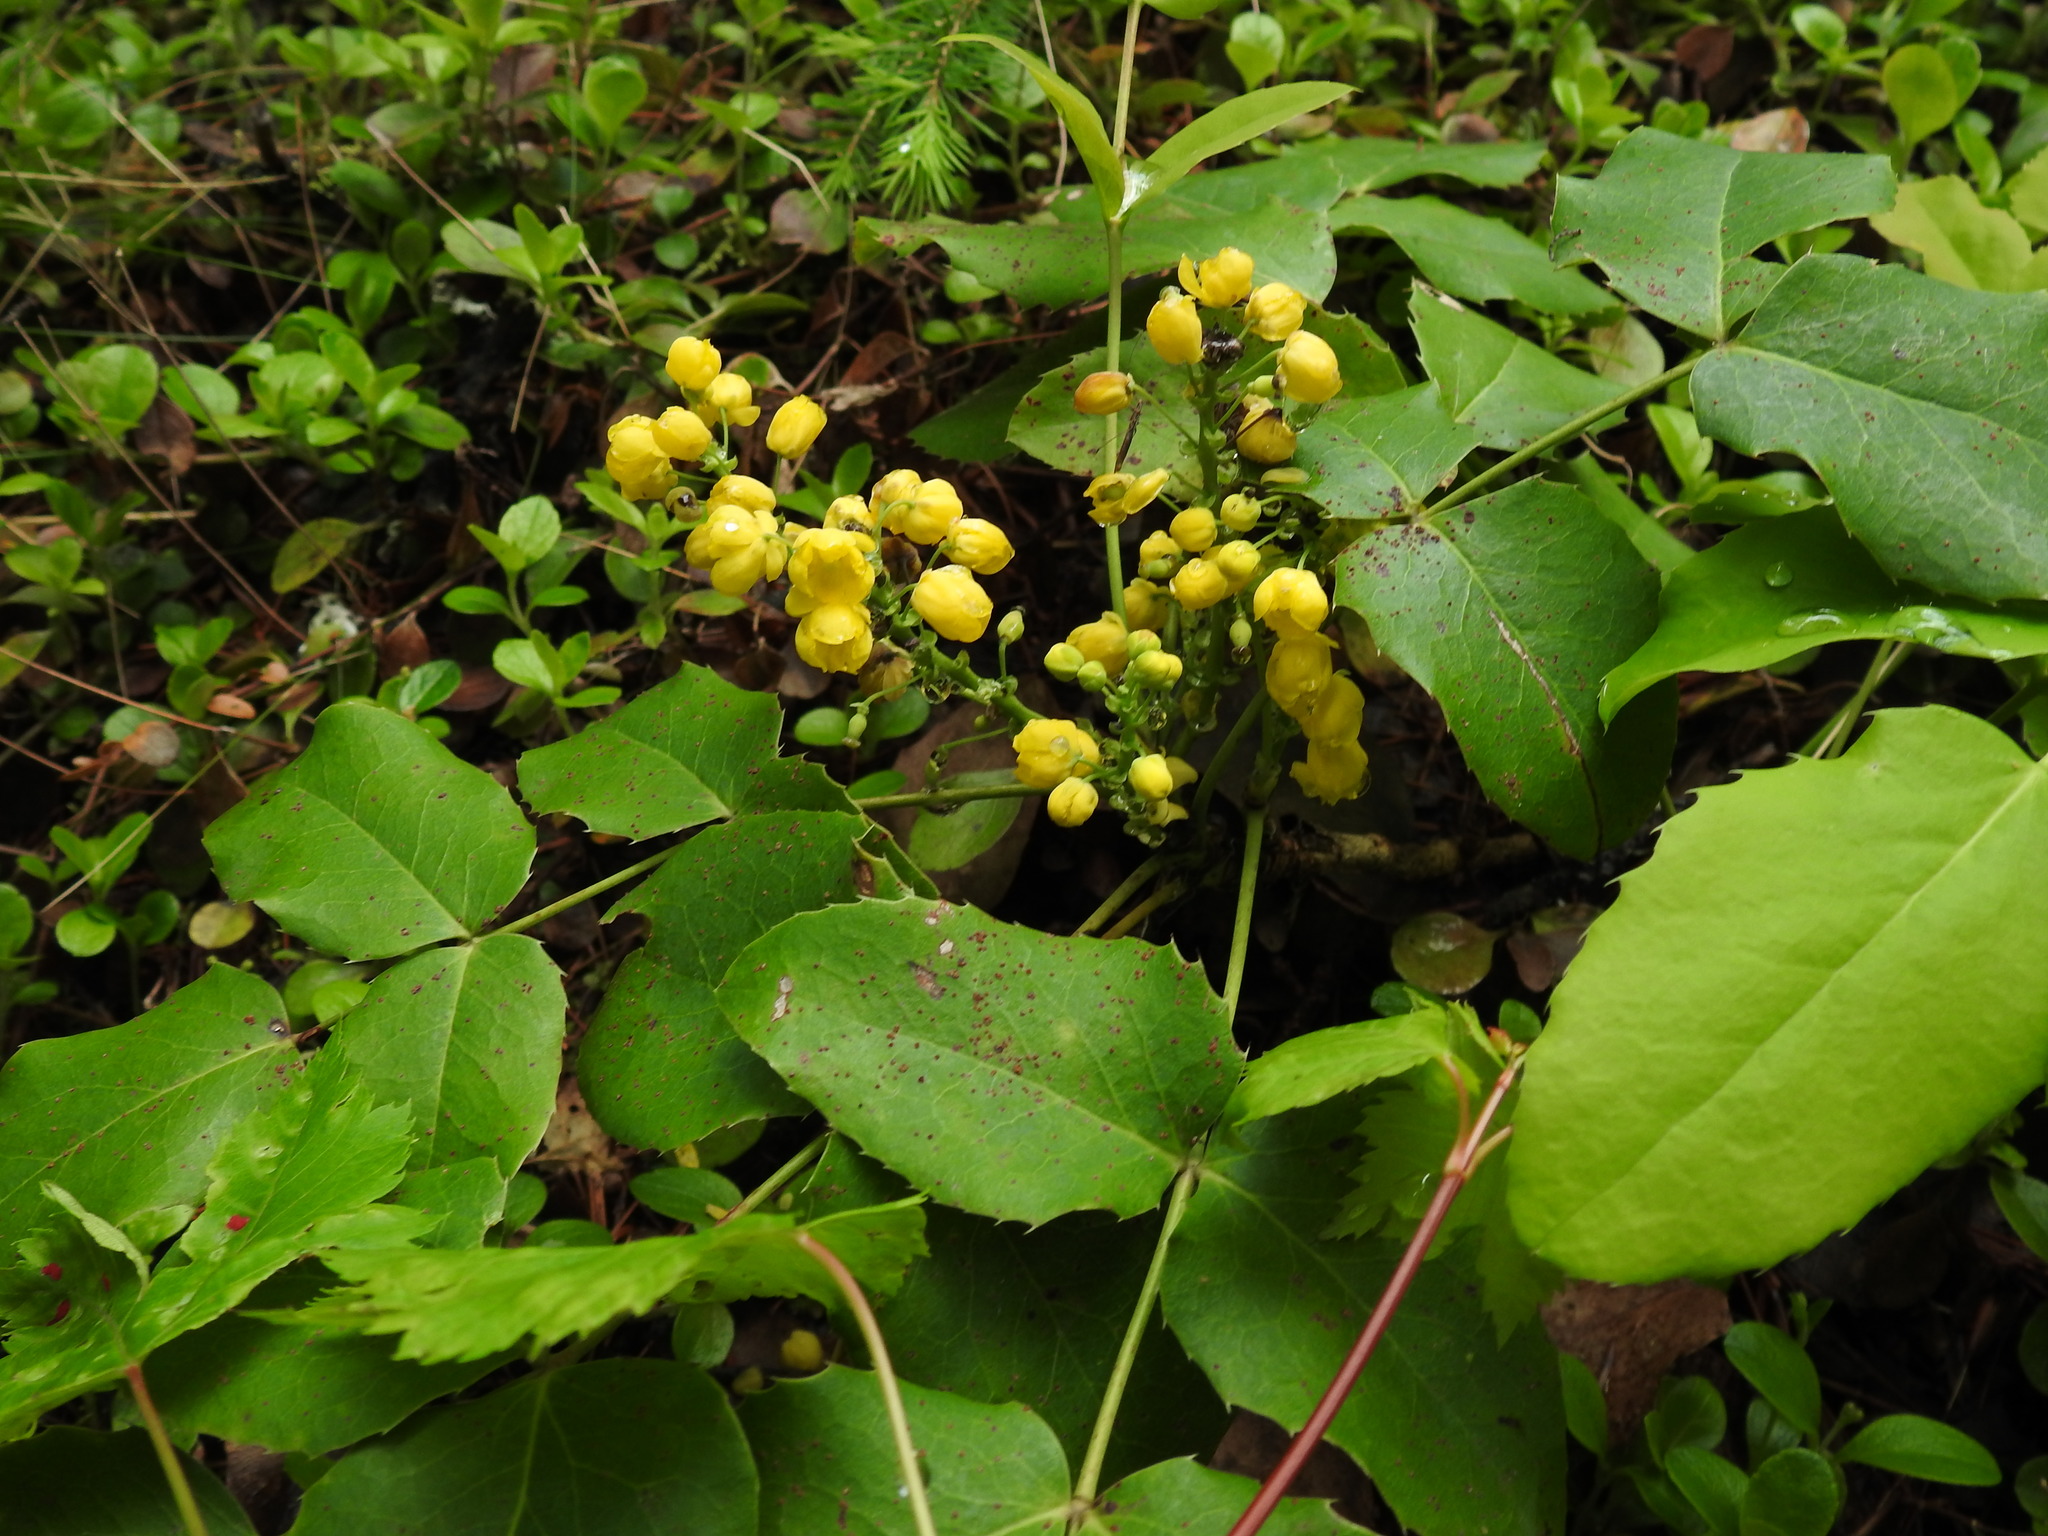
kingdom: Plantae
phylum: Tracheophyta
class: Magnoliopsida
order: Ranunculales
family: Berberidaceae
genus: Mahonia
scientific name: Mahonia repens
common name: Creeping oregon-grape
